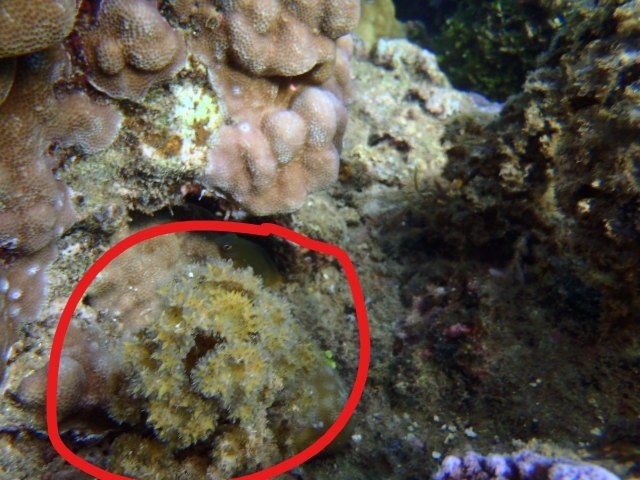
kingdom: Chromista
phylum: Ochrophyta
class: Phaeophyceae
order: Fucales
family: Sargassaceae
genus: Turbinaria
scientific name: Turbinaria ornata
